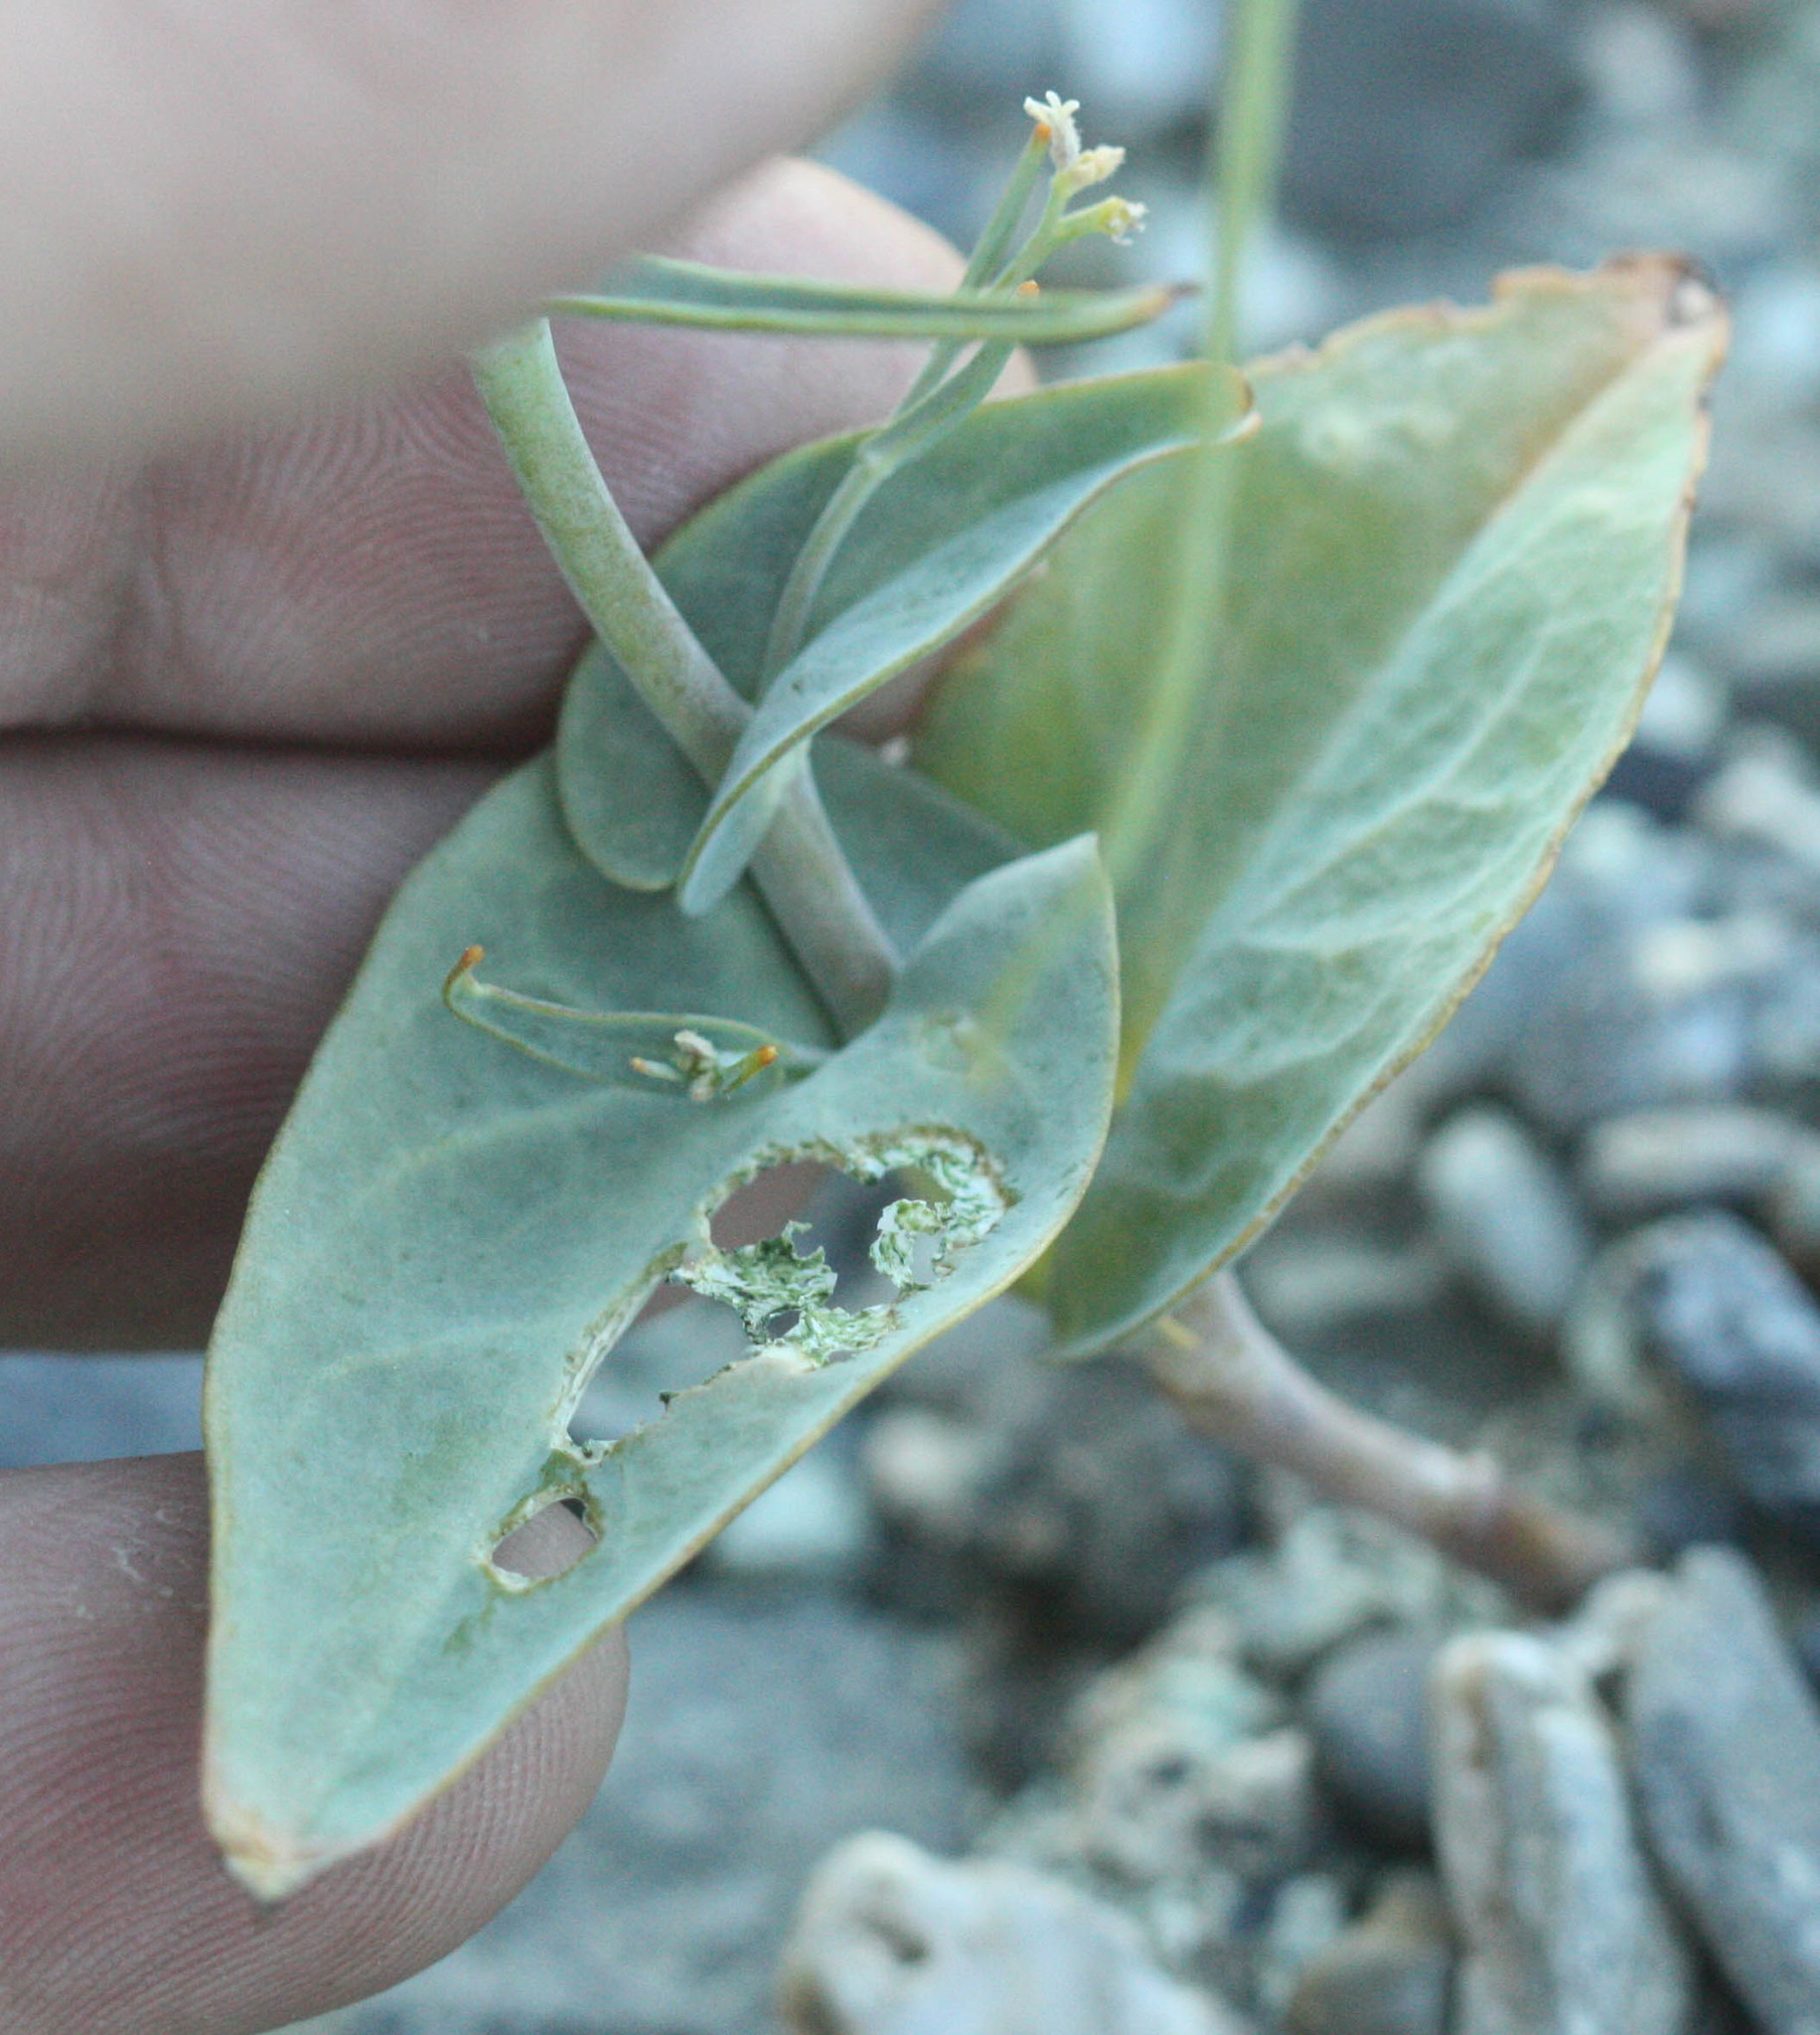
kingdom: Plantae
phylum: Tracheophyta
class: Magnoliopsida
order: Brassicales
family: Brassicaceae
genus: Streptanthus
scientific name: Streptanthus breweri
